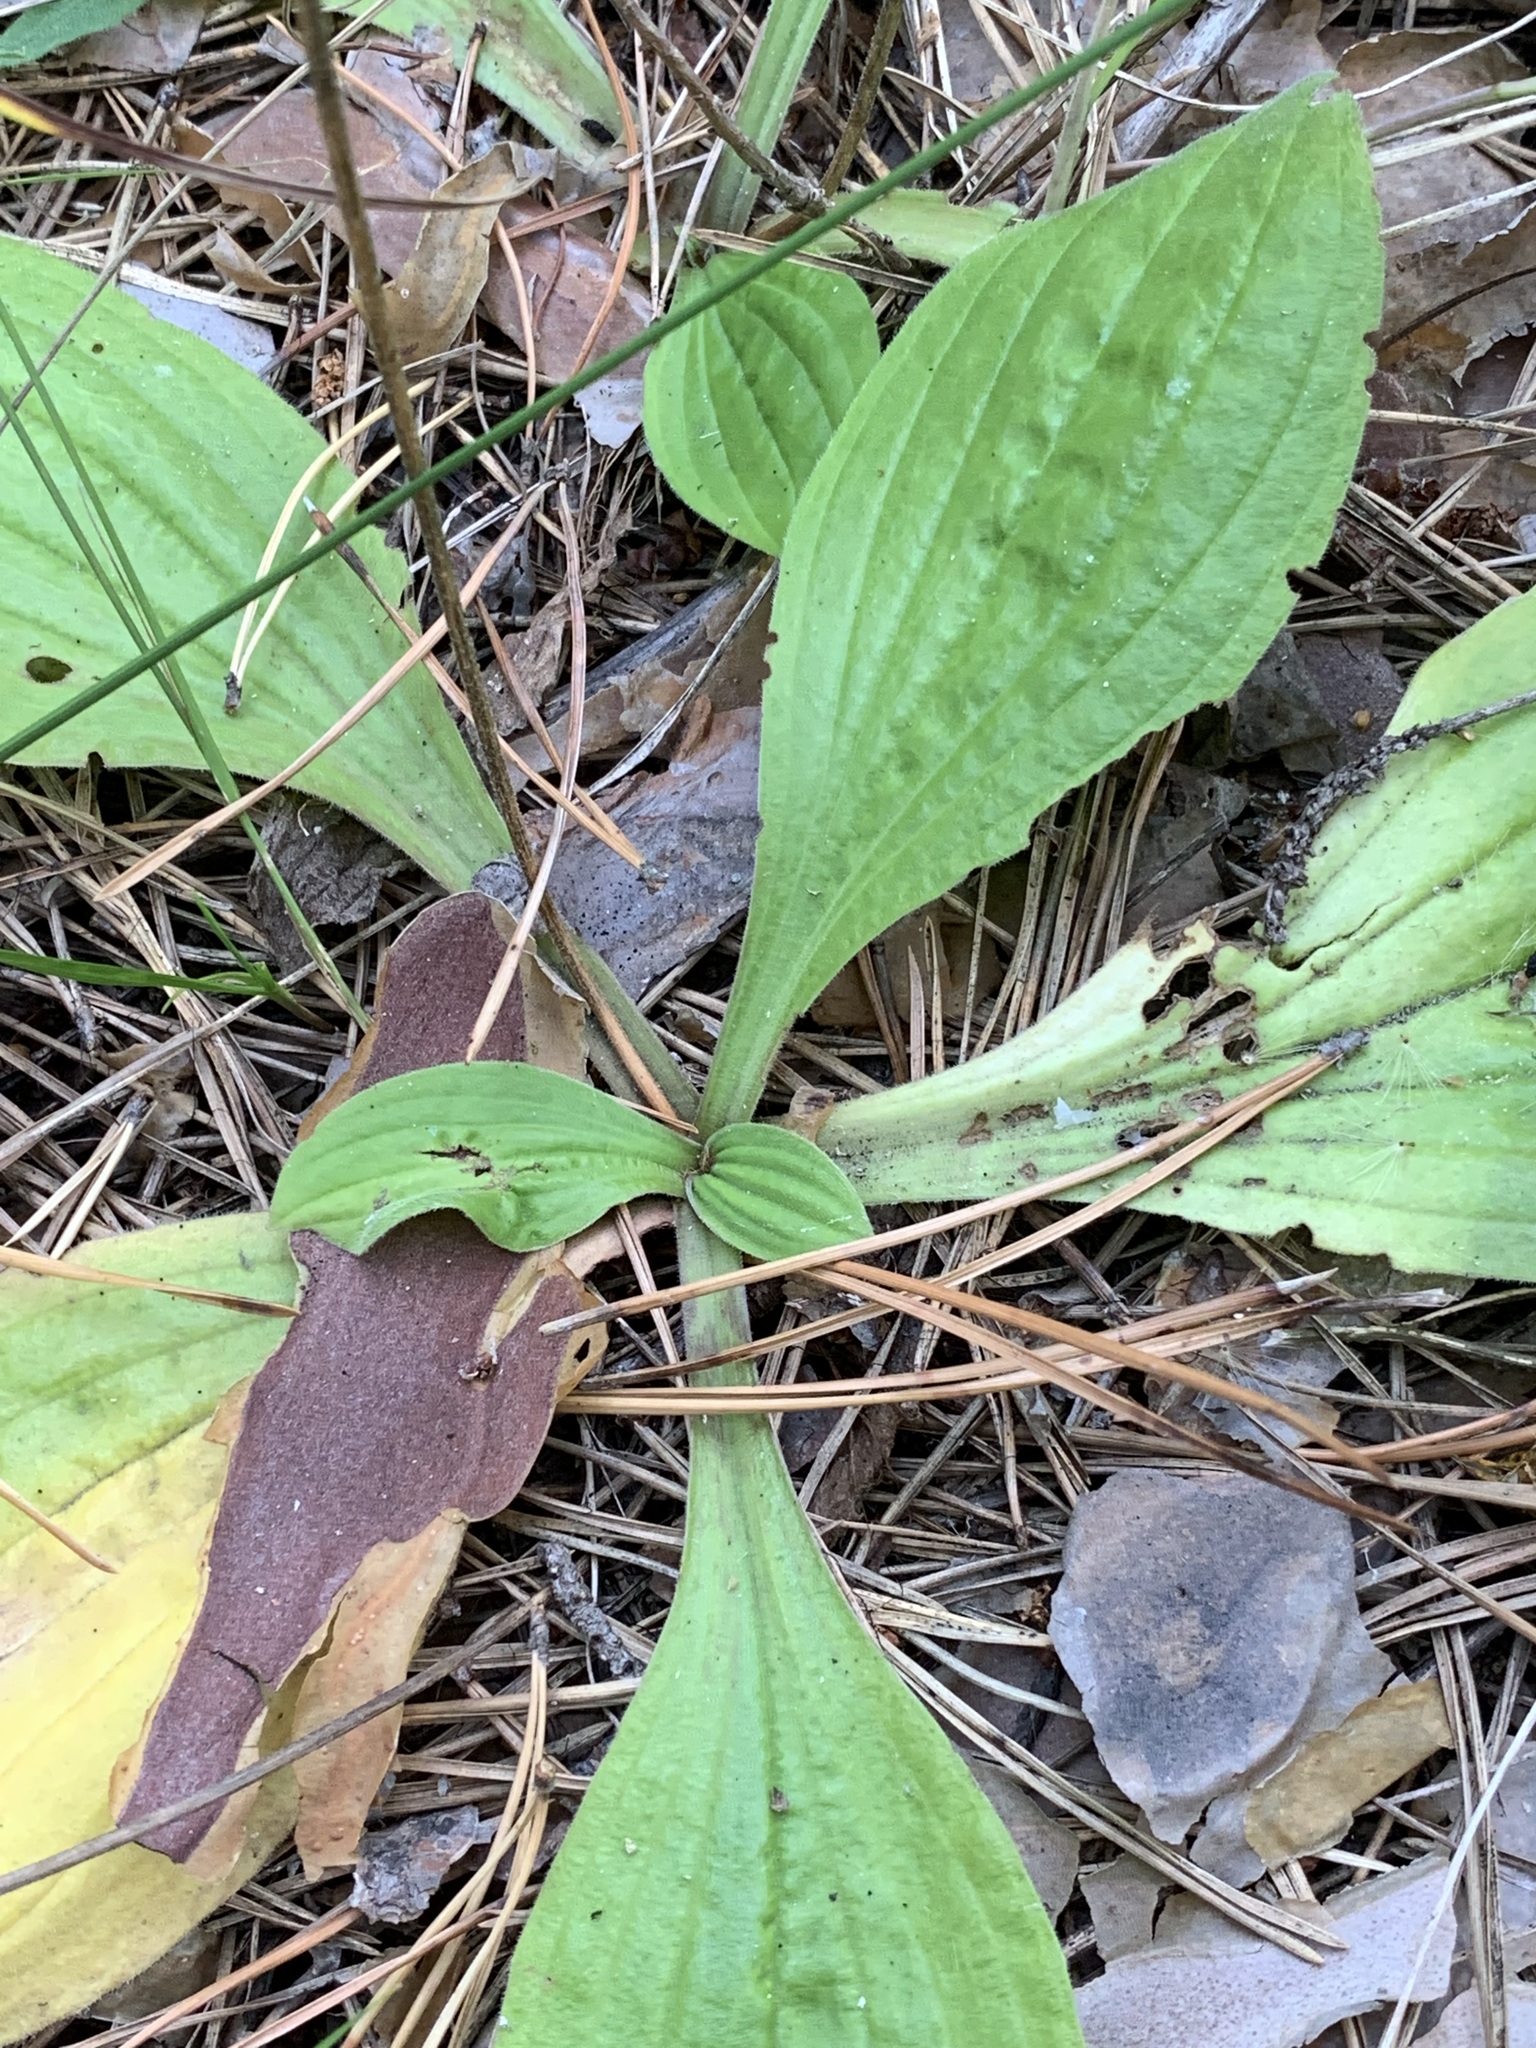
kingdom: Plantae
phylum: Tracheophyta
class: Magnoliopsida
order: Lamiales
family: Plantaginaceae
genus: Plantago
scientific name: Plantago urvillei
